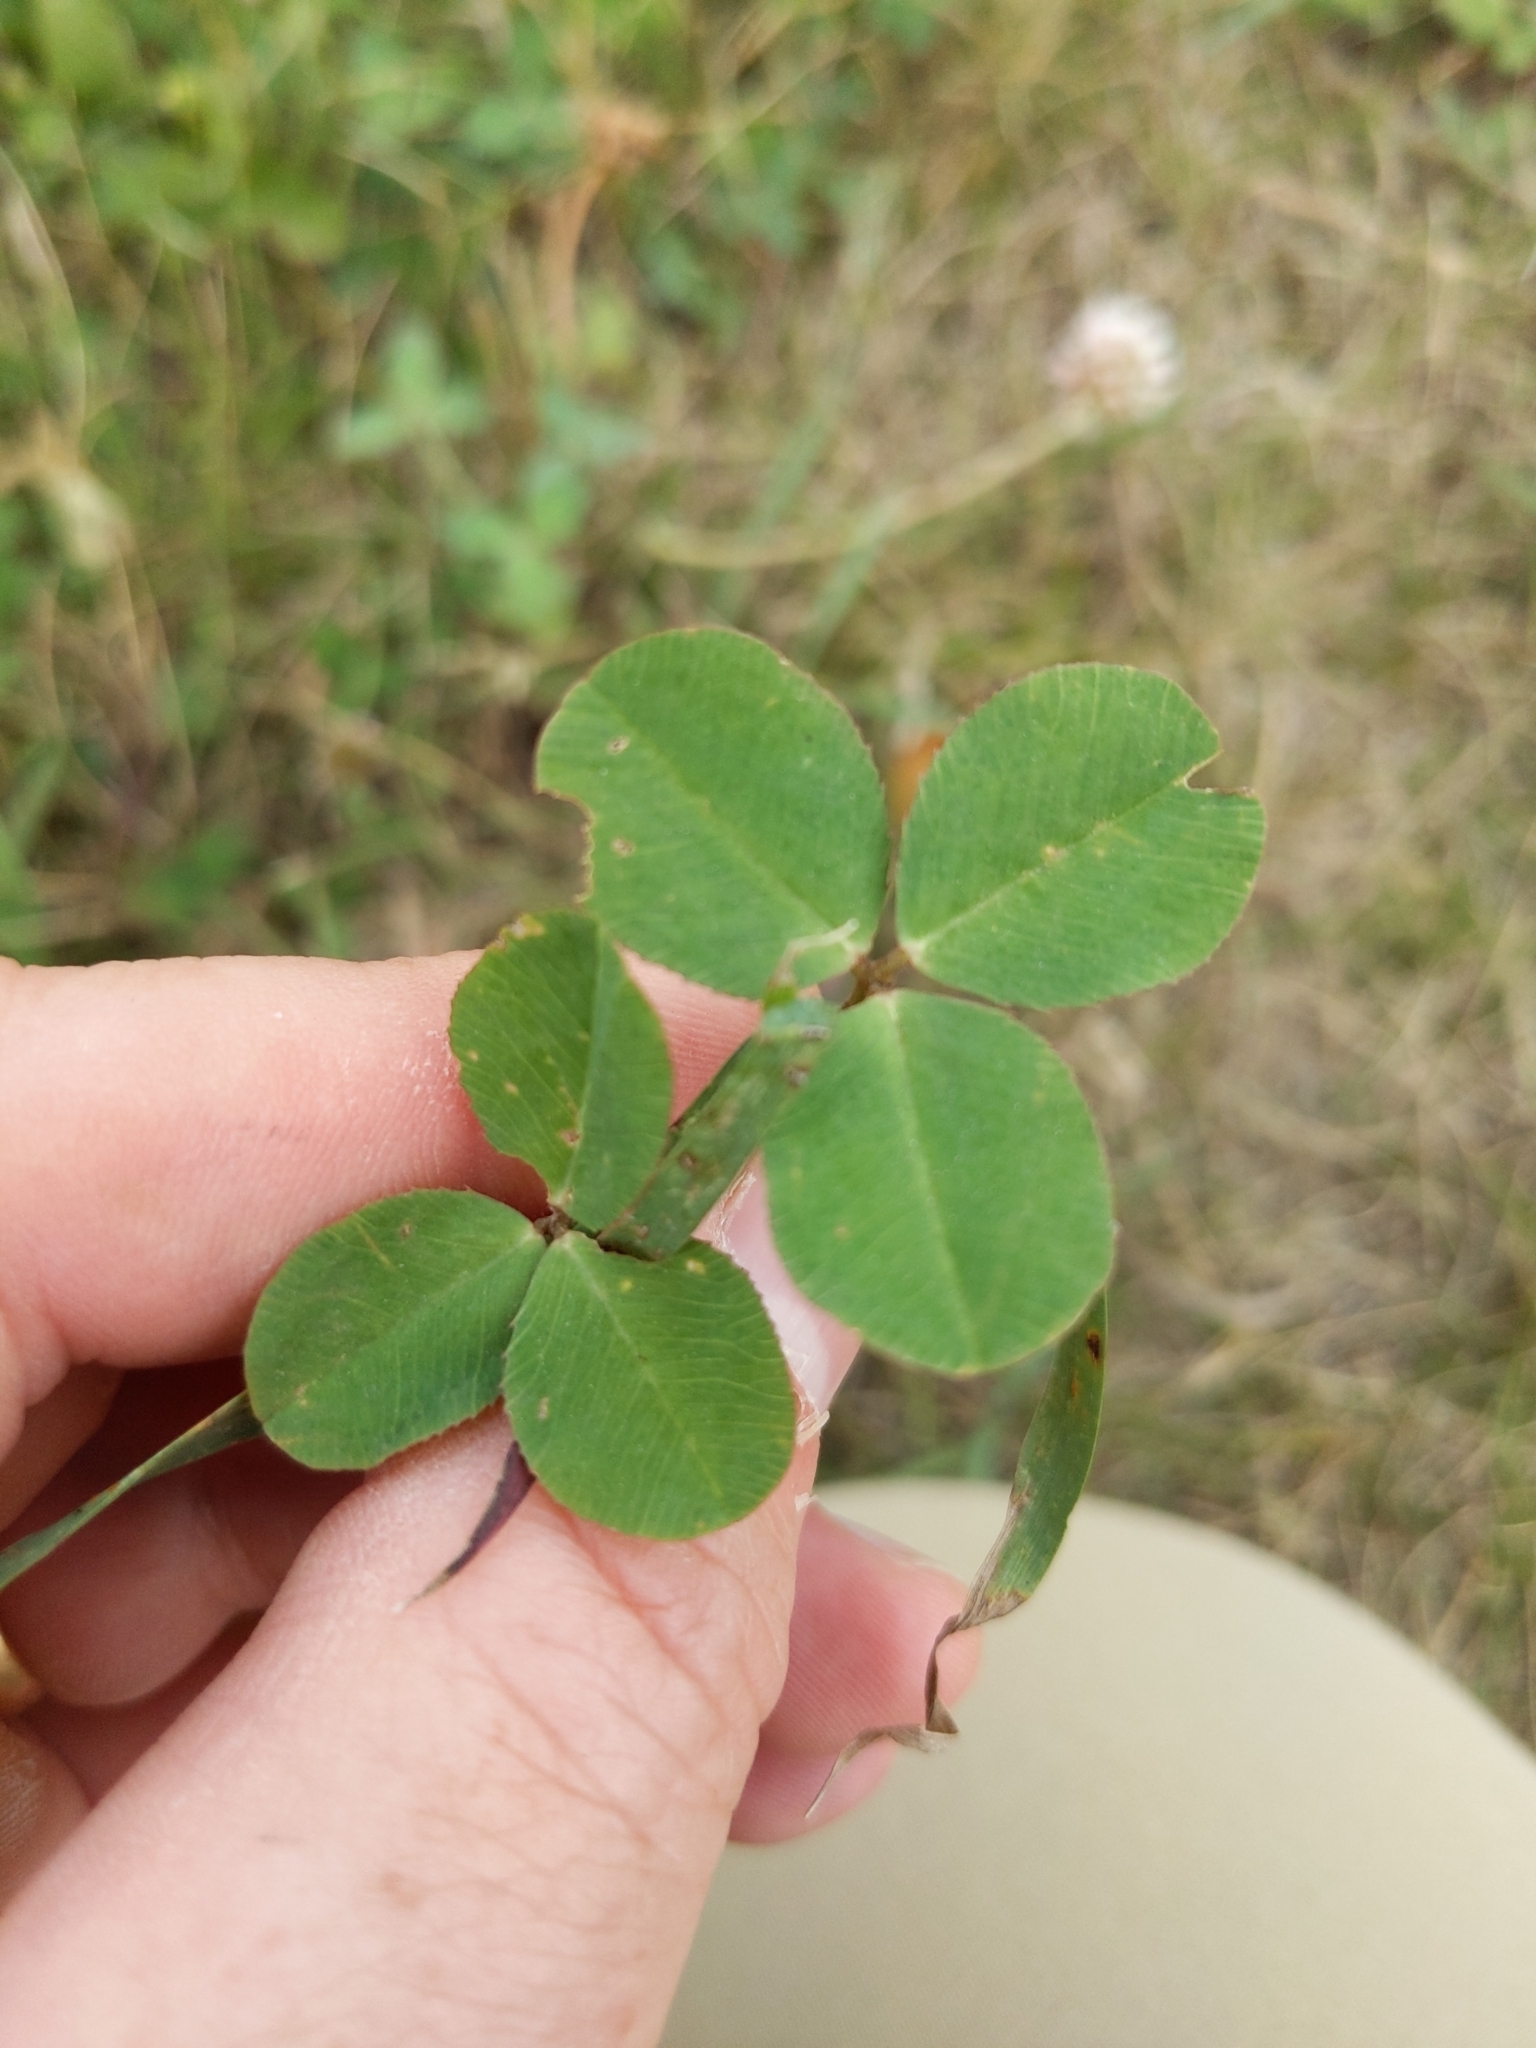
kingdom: Plantae
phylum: Tracheophyta
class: Magnoliopsida
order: Fabales
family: Fabaceae
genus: Trifolium
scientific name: Trifolium repens
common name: White clover
